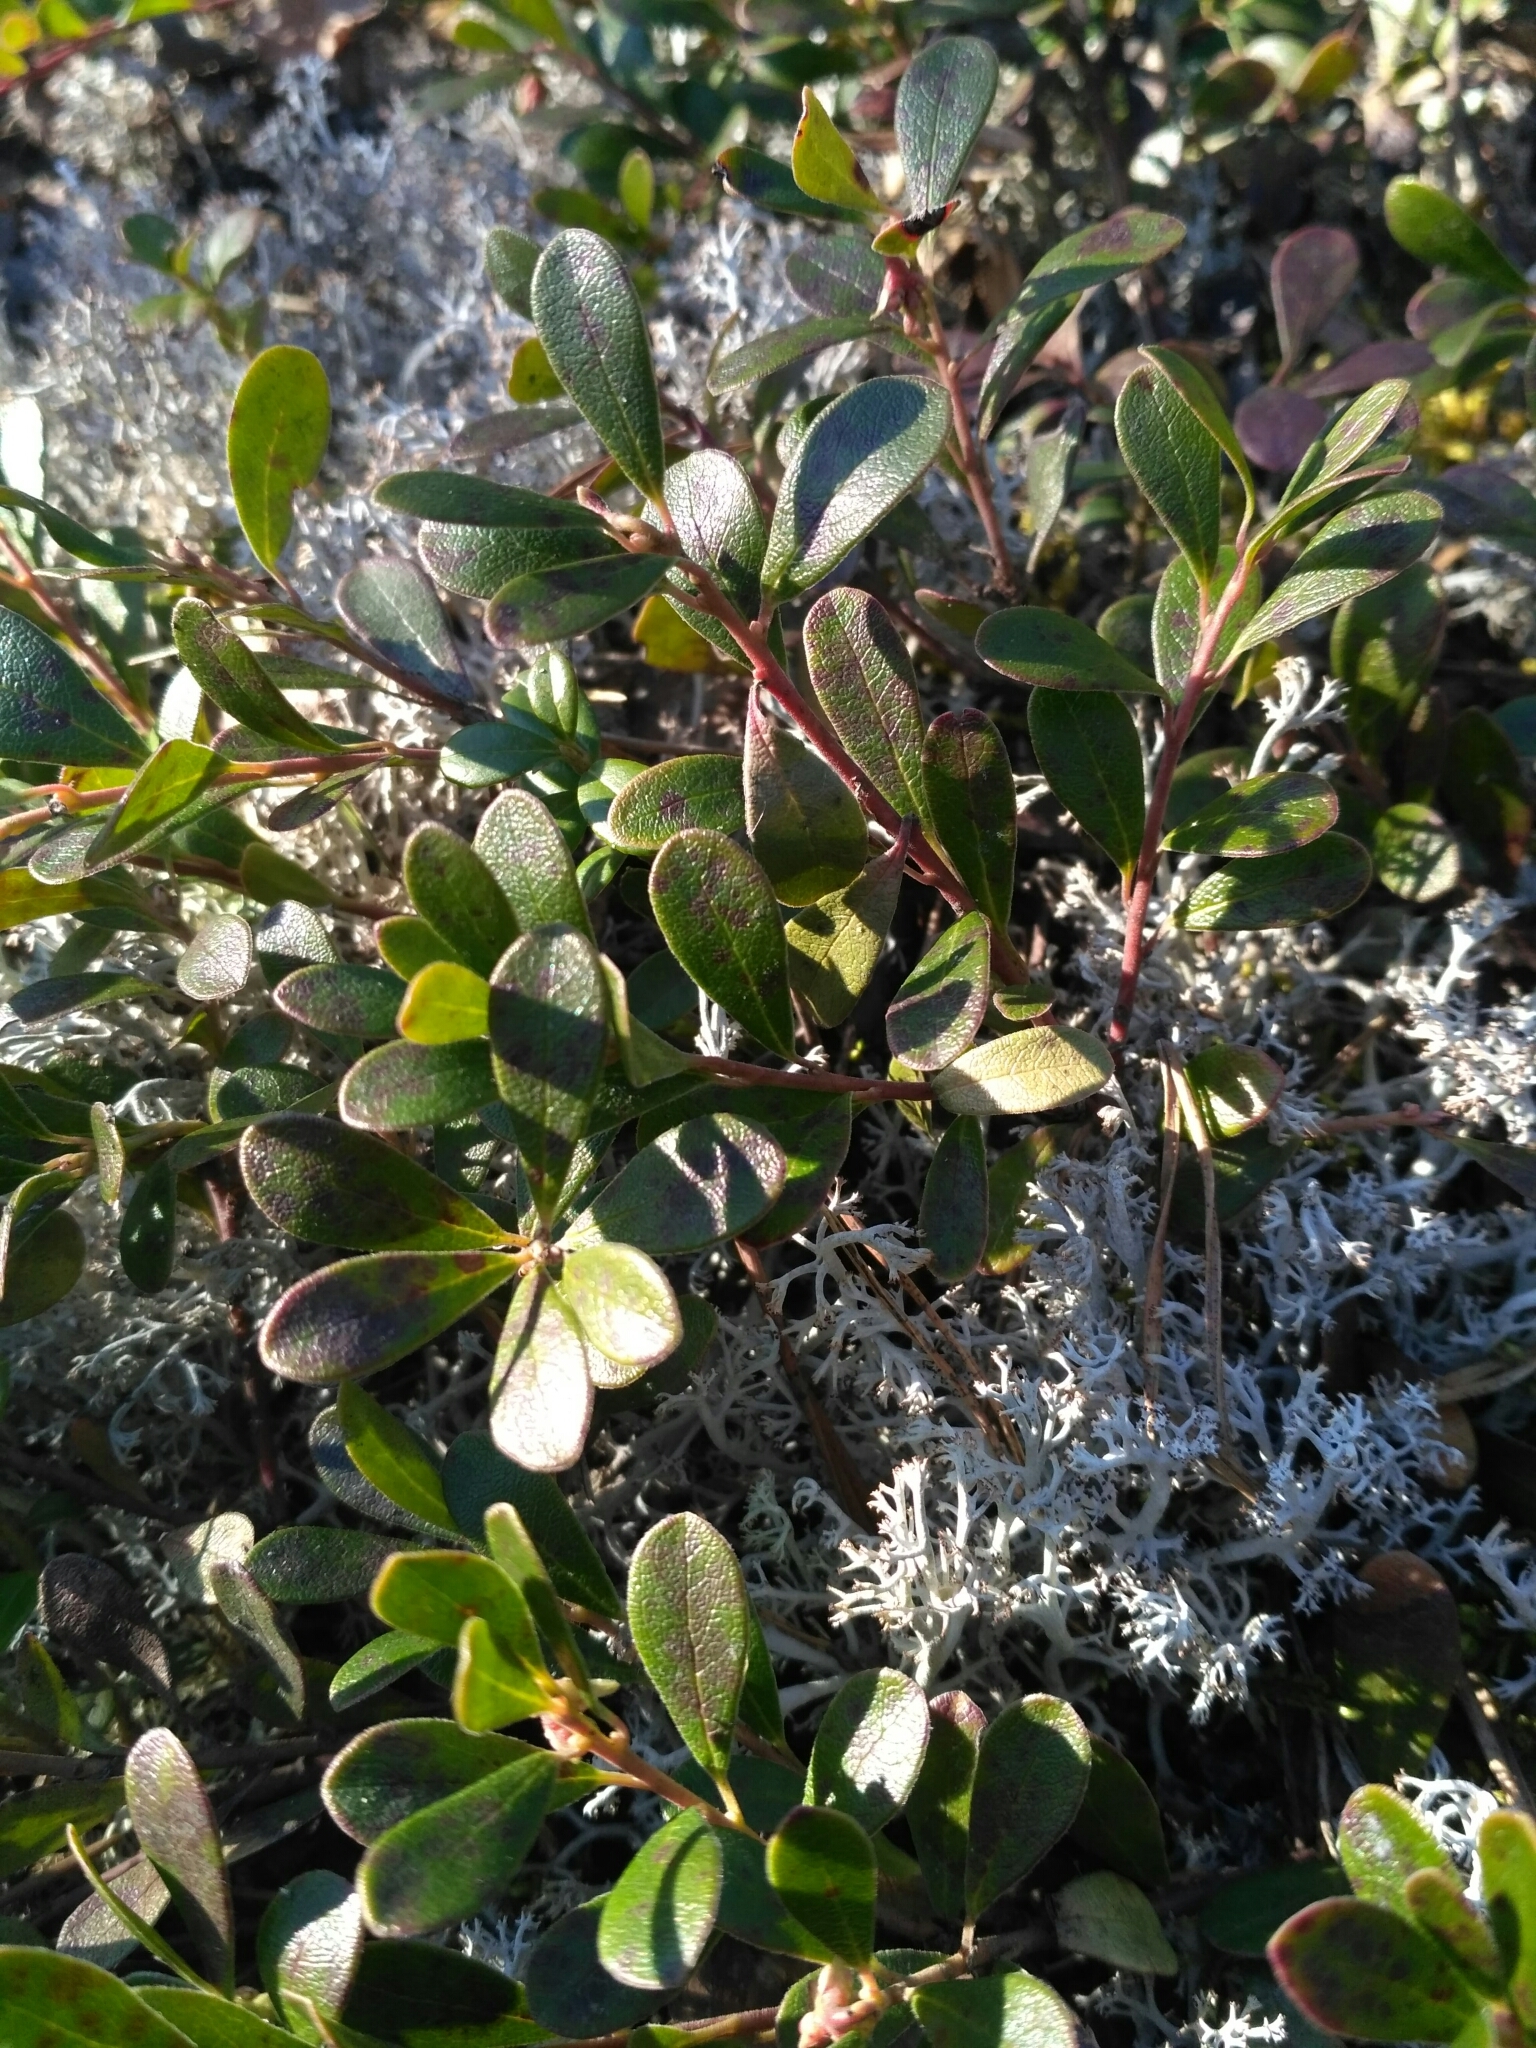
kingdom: Plantae
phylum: Tracheophyta
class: Magnoliopsida
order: Ericales
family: Ericaceae
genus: Arctostaphylos
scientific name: Arctostaphylos uva-ursi
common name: Bearberry
